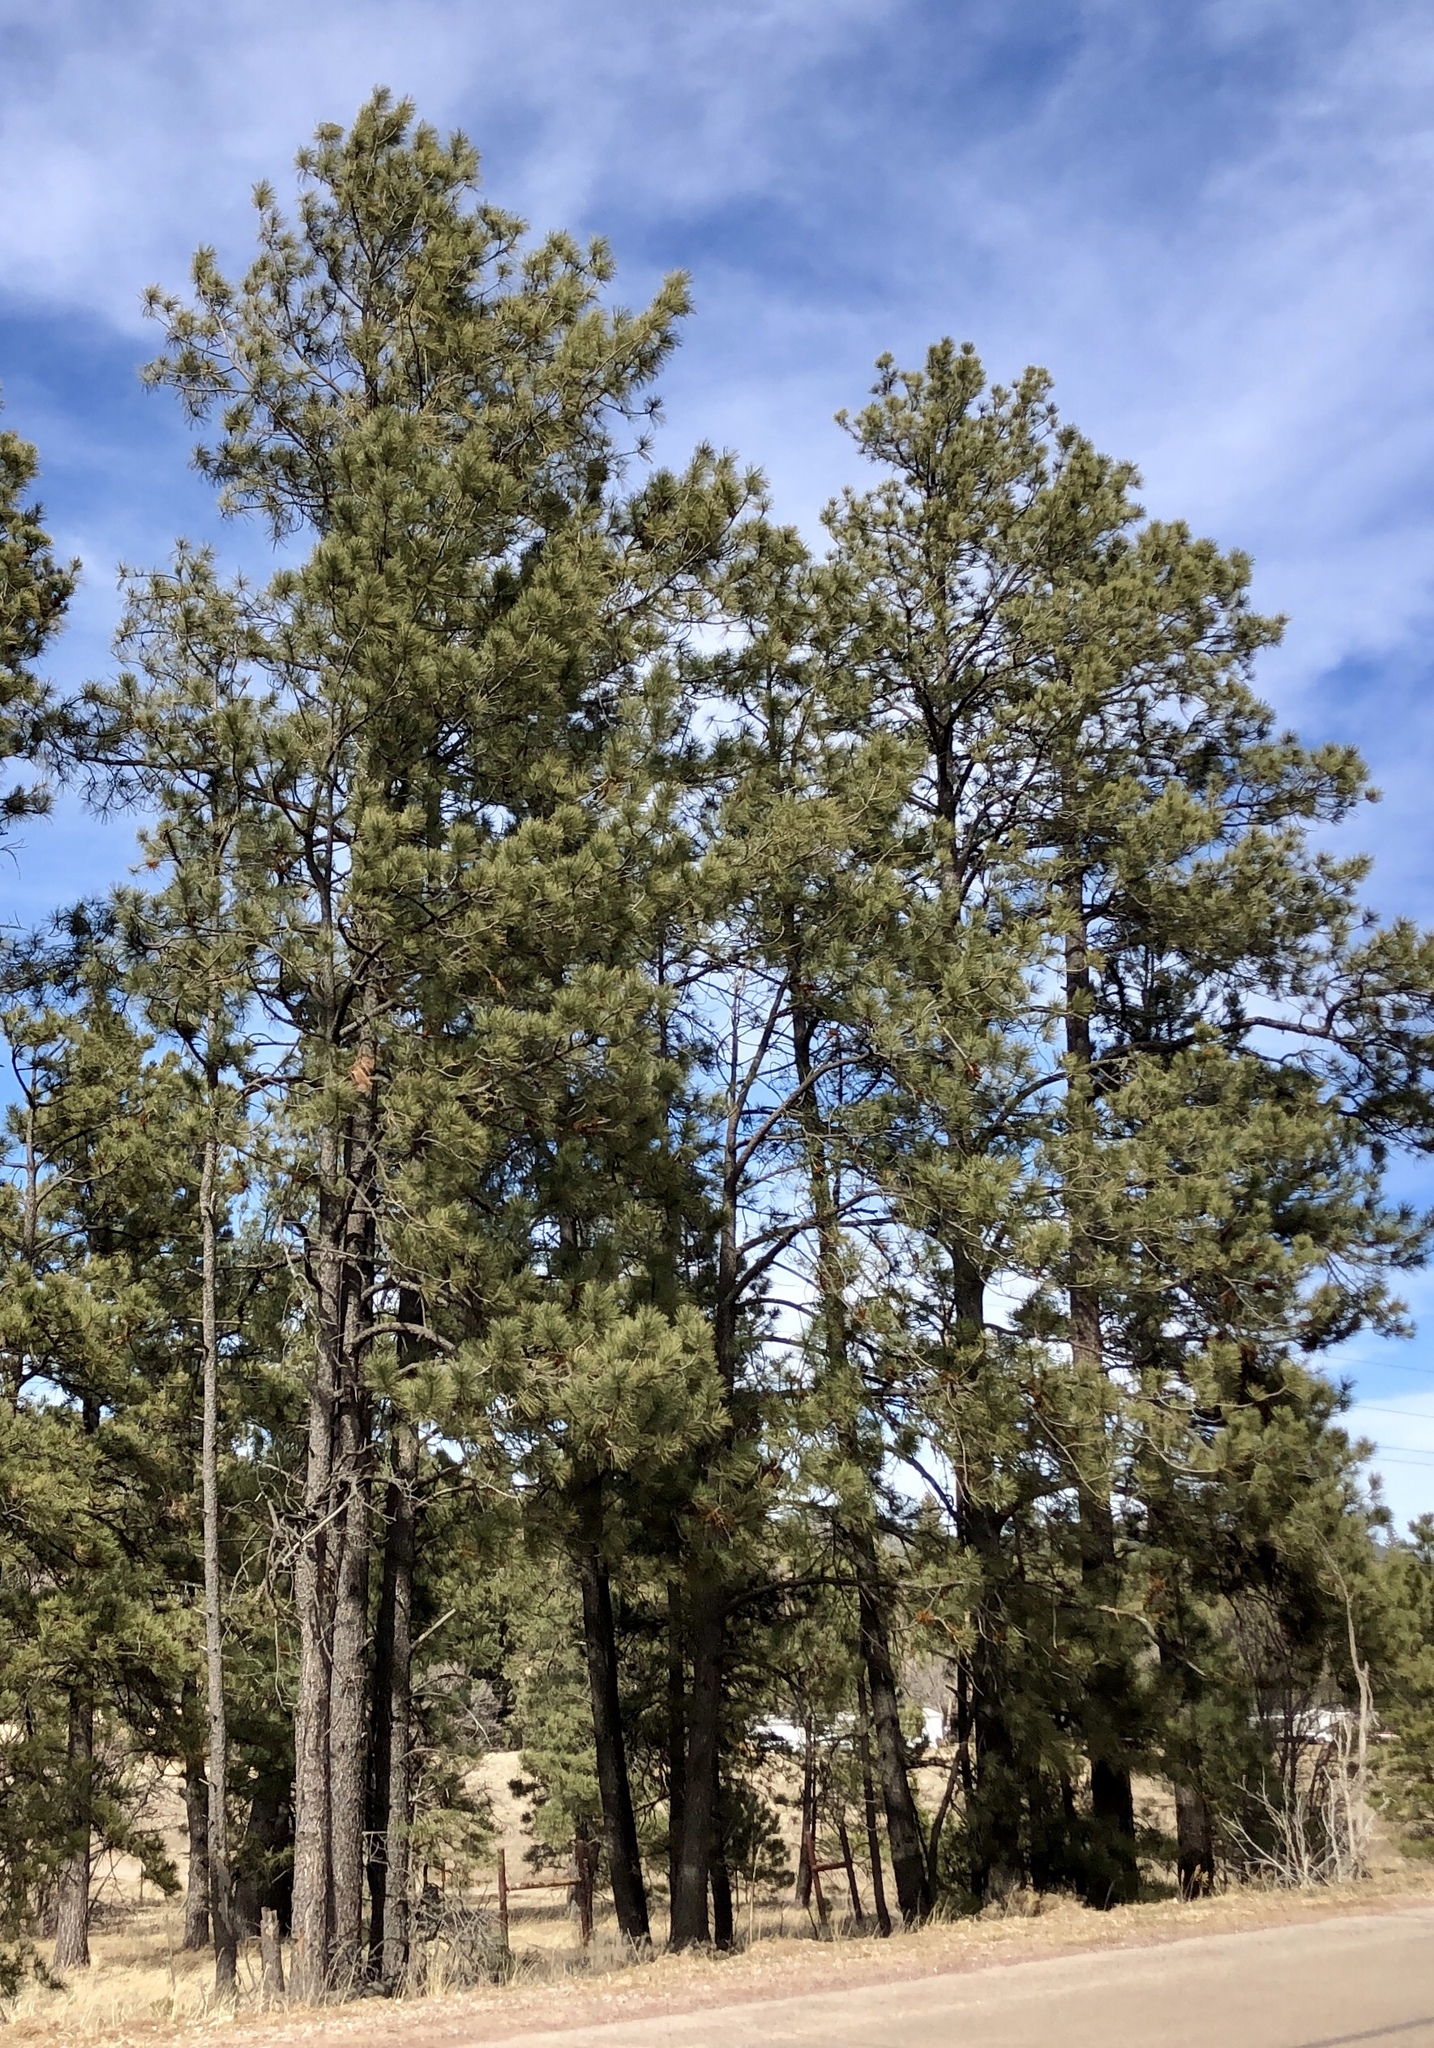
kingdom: Plantae
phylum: Tracheophyta
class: Pinopsida
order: Pinales
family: Pinaceae
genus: Pinus
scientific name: Pinus ponderosa
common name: Western yellow-pine
